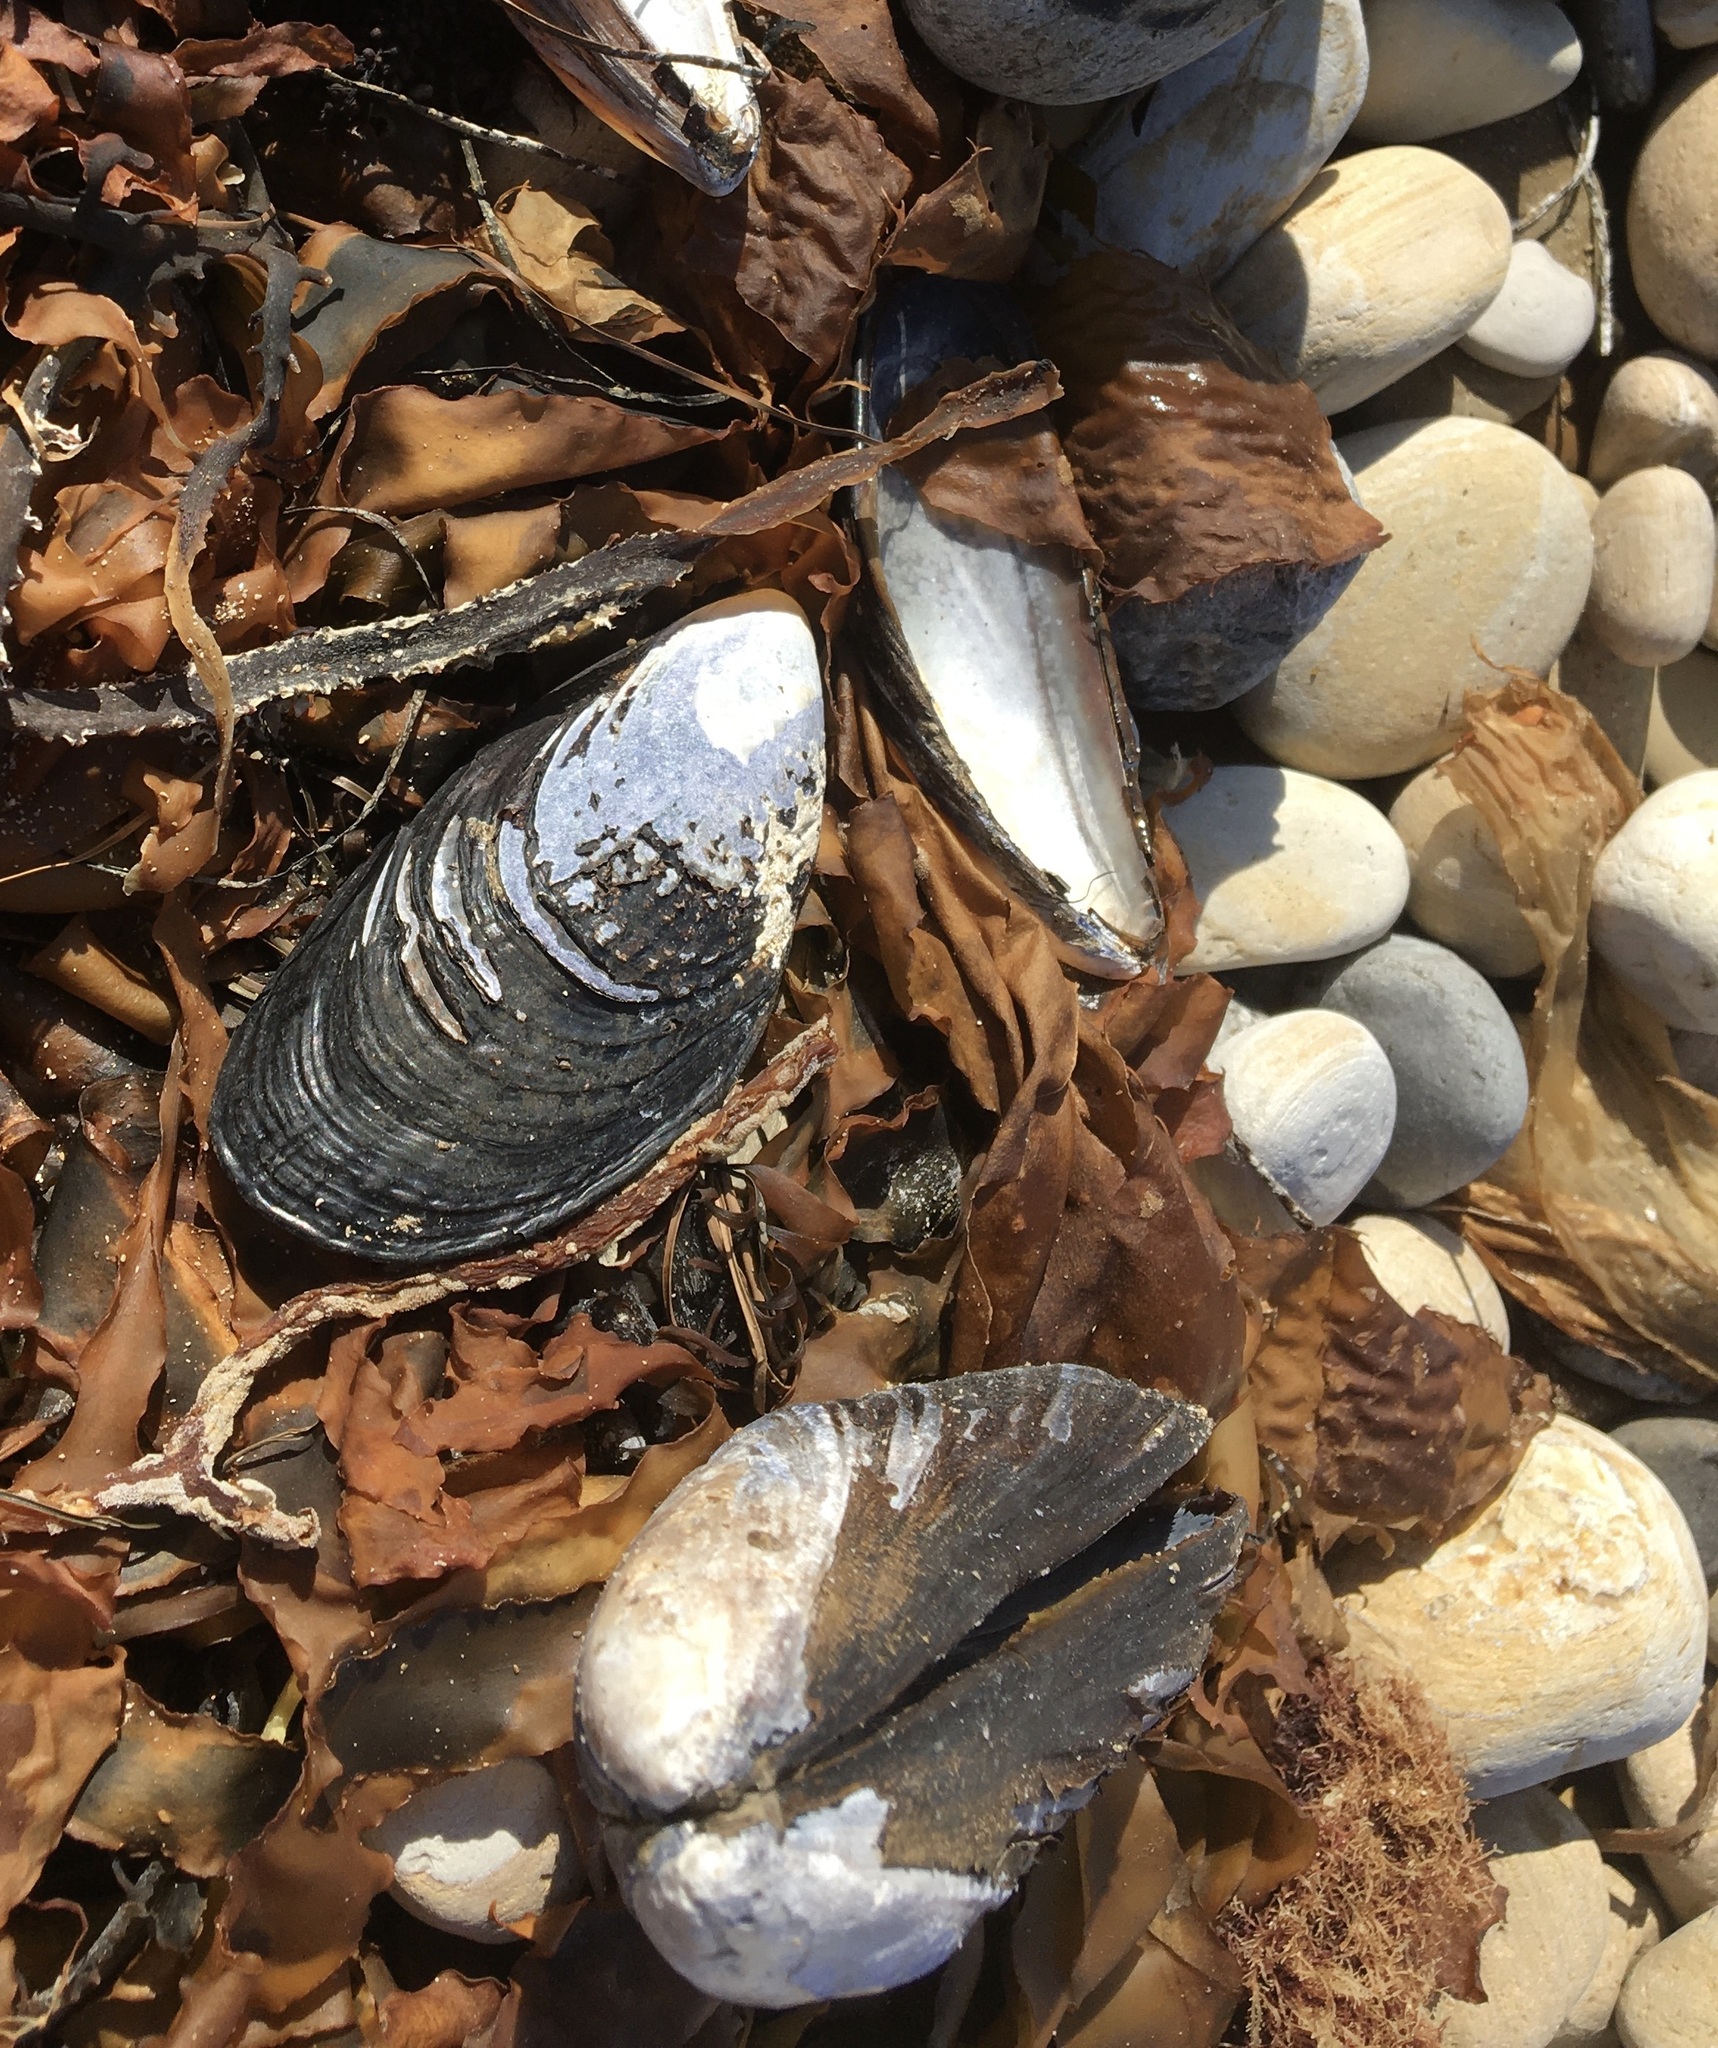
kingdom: Animalia
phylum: Mollusca
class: Bivalvia
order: Mytilida
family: Mytilidae
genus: Mytilus
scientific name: Mytilus californianus
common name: California mussel
